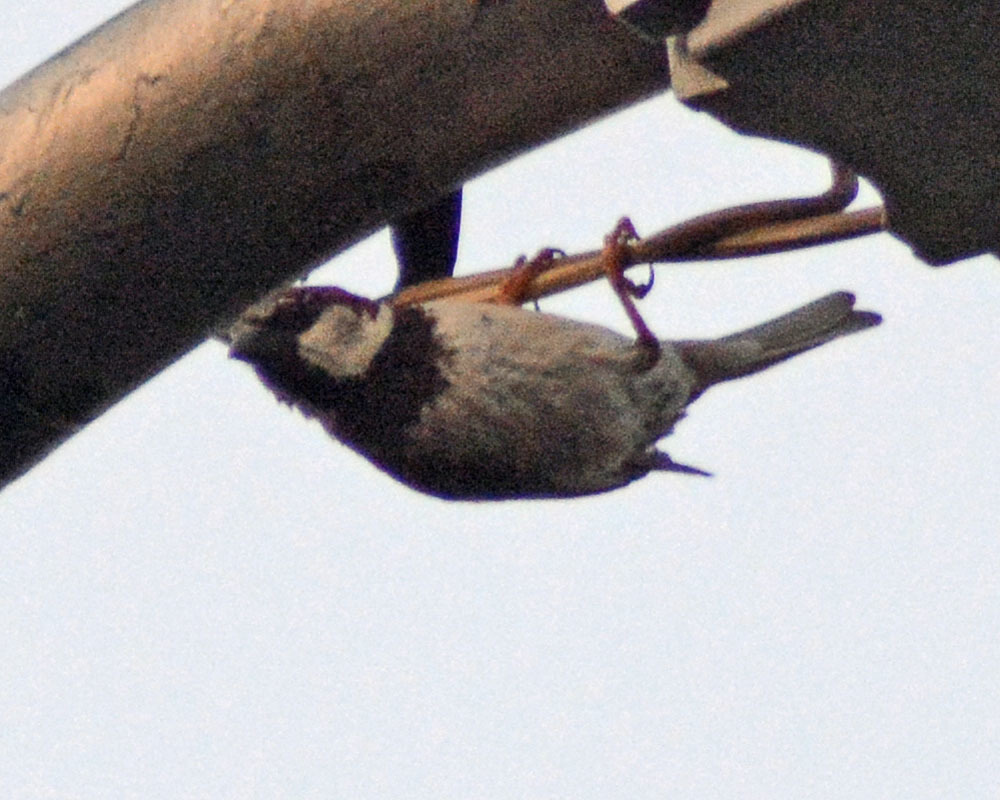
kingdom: Animalia
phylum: Chordata
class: Aves
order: Passeriformes
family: Passeridae
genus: Passer
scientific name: Passer domesticus
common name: House sparrow
